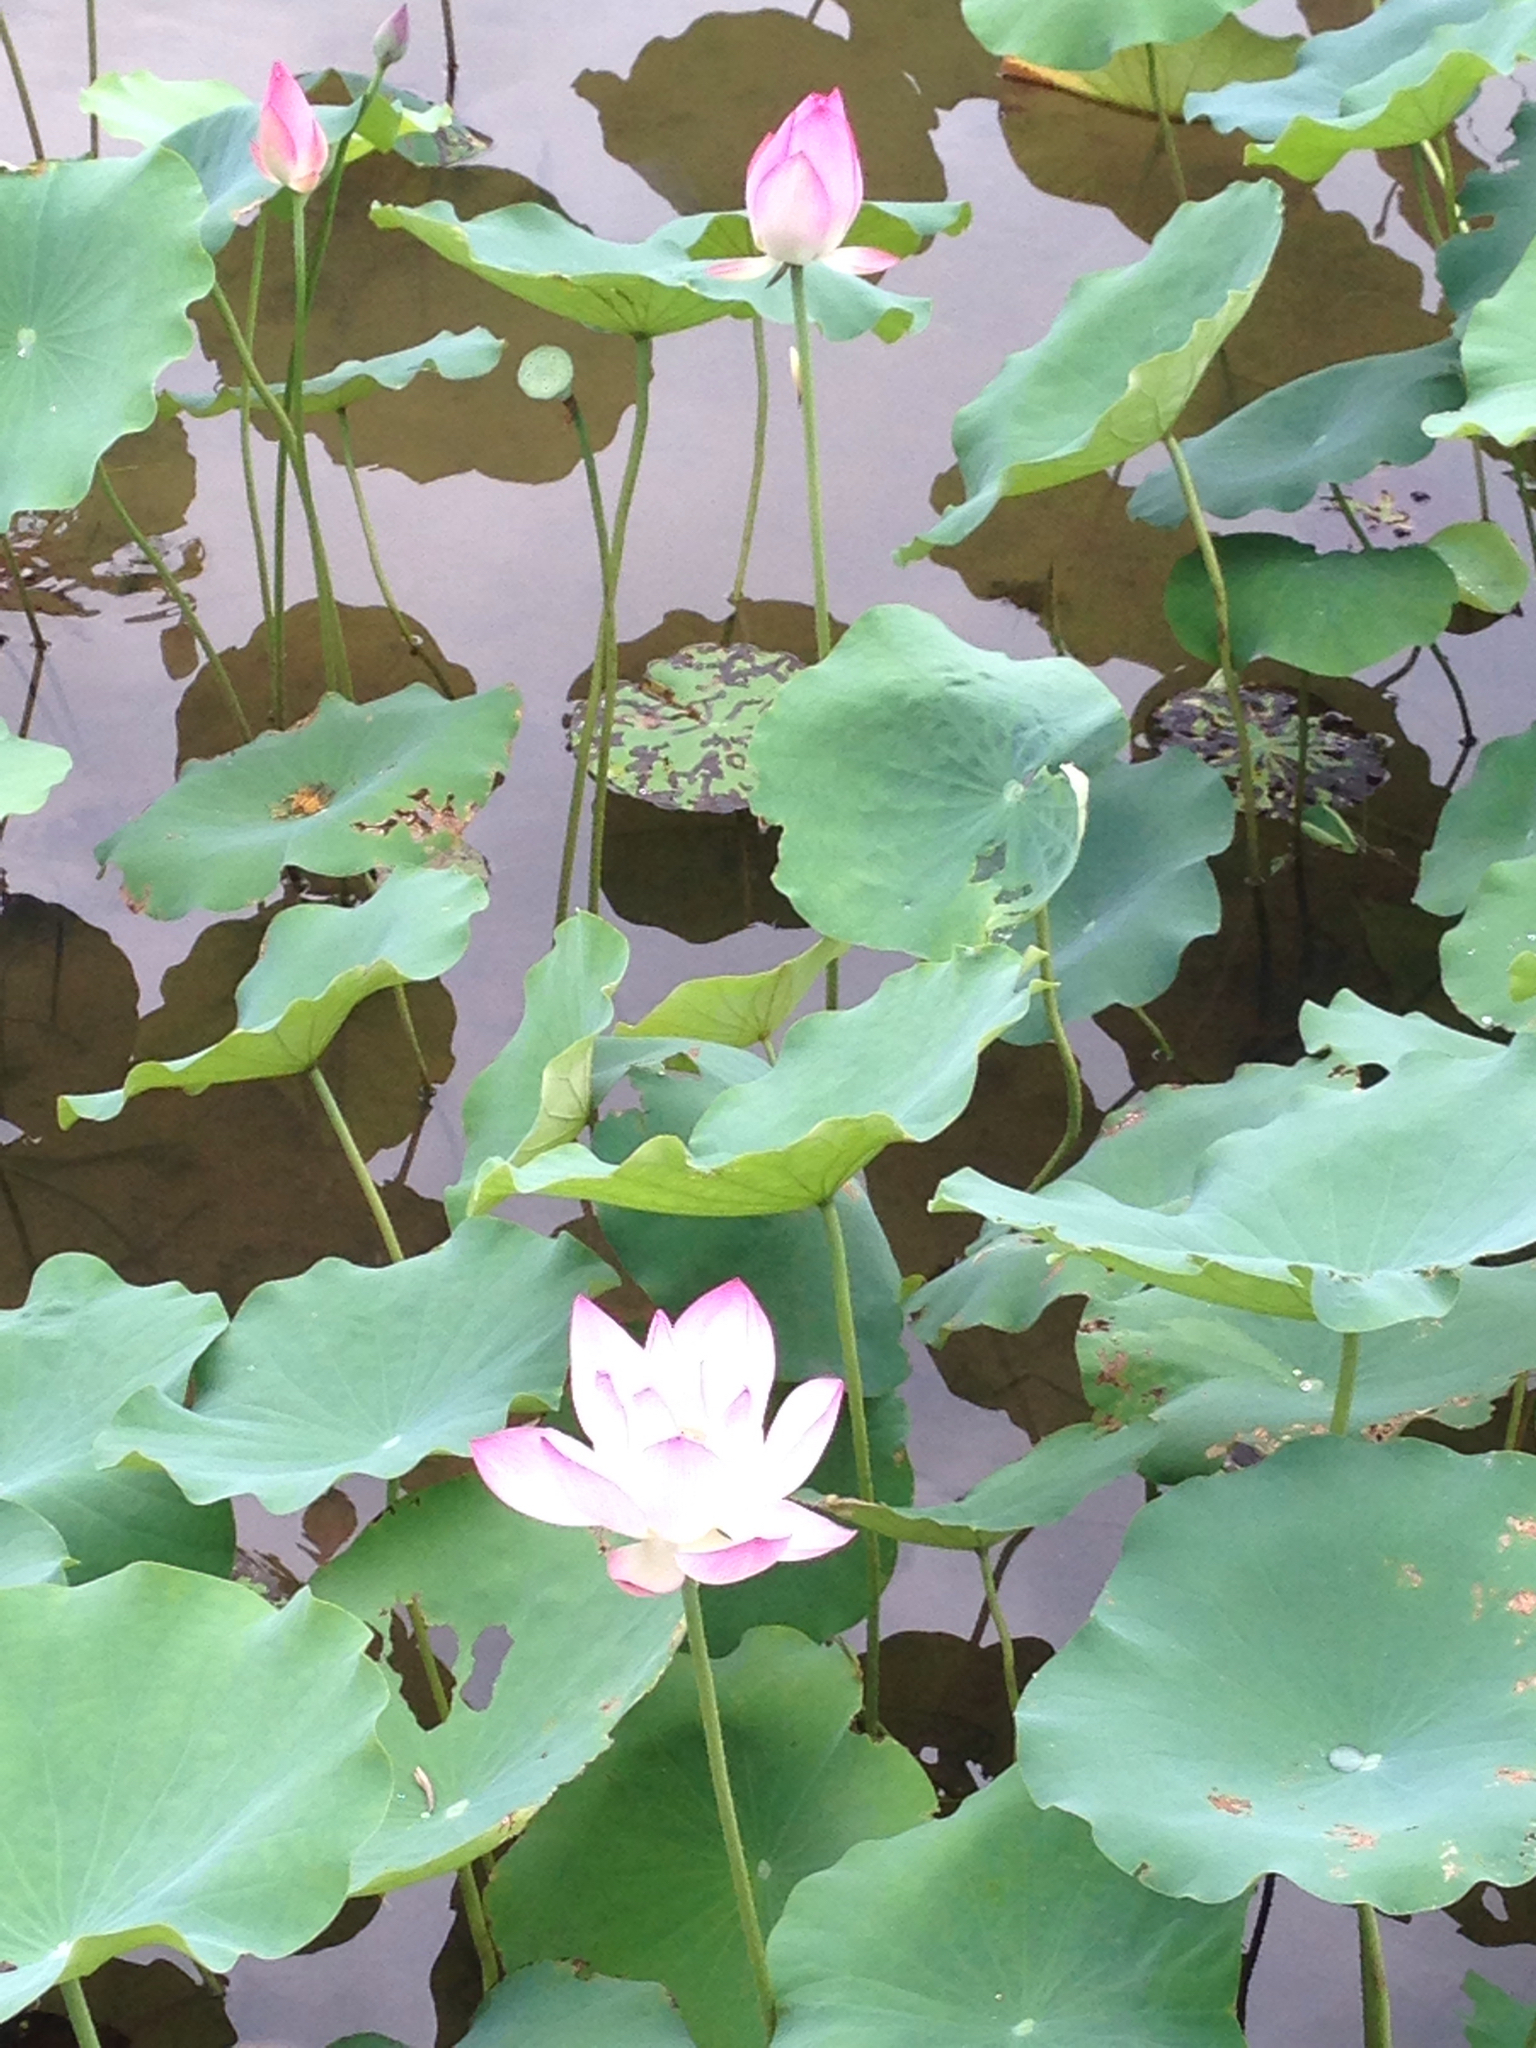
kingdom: Plantae
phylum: Tracheophyta
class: Magnoliopsida
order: Proteales
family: Nelumbonaceae
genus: Nelumbo
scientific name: Nelumbo nucifera
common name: Sacred lotus
